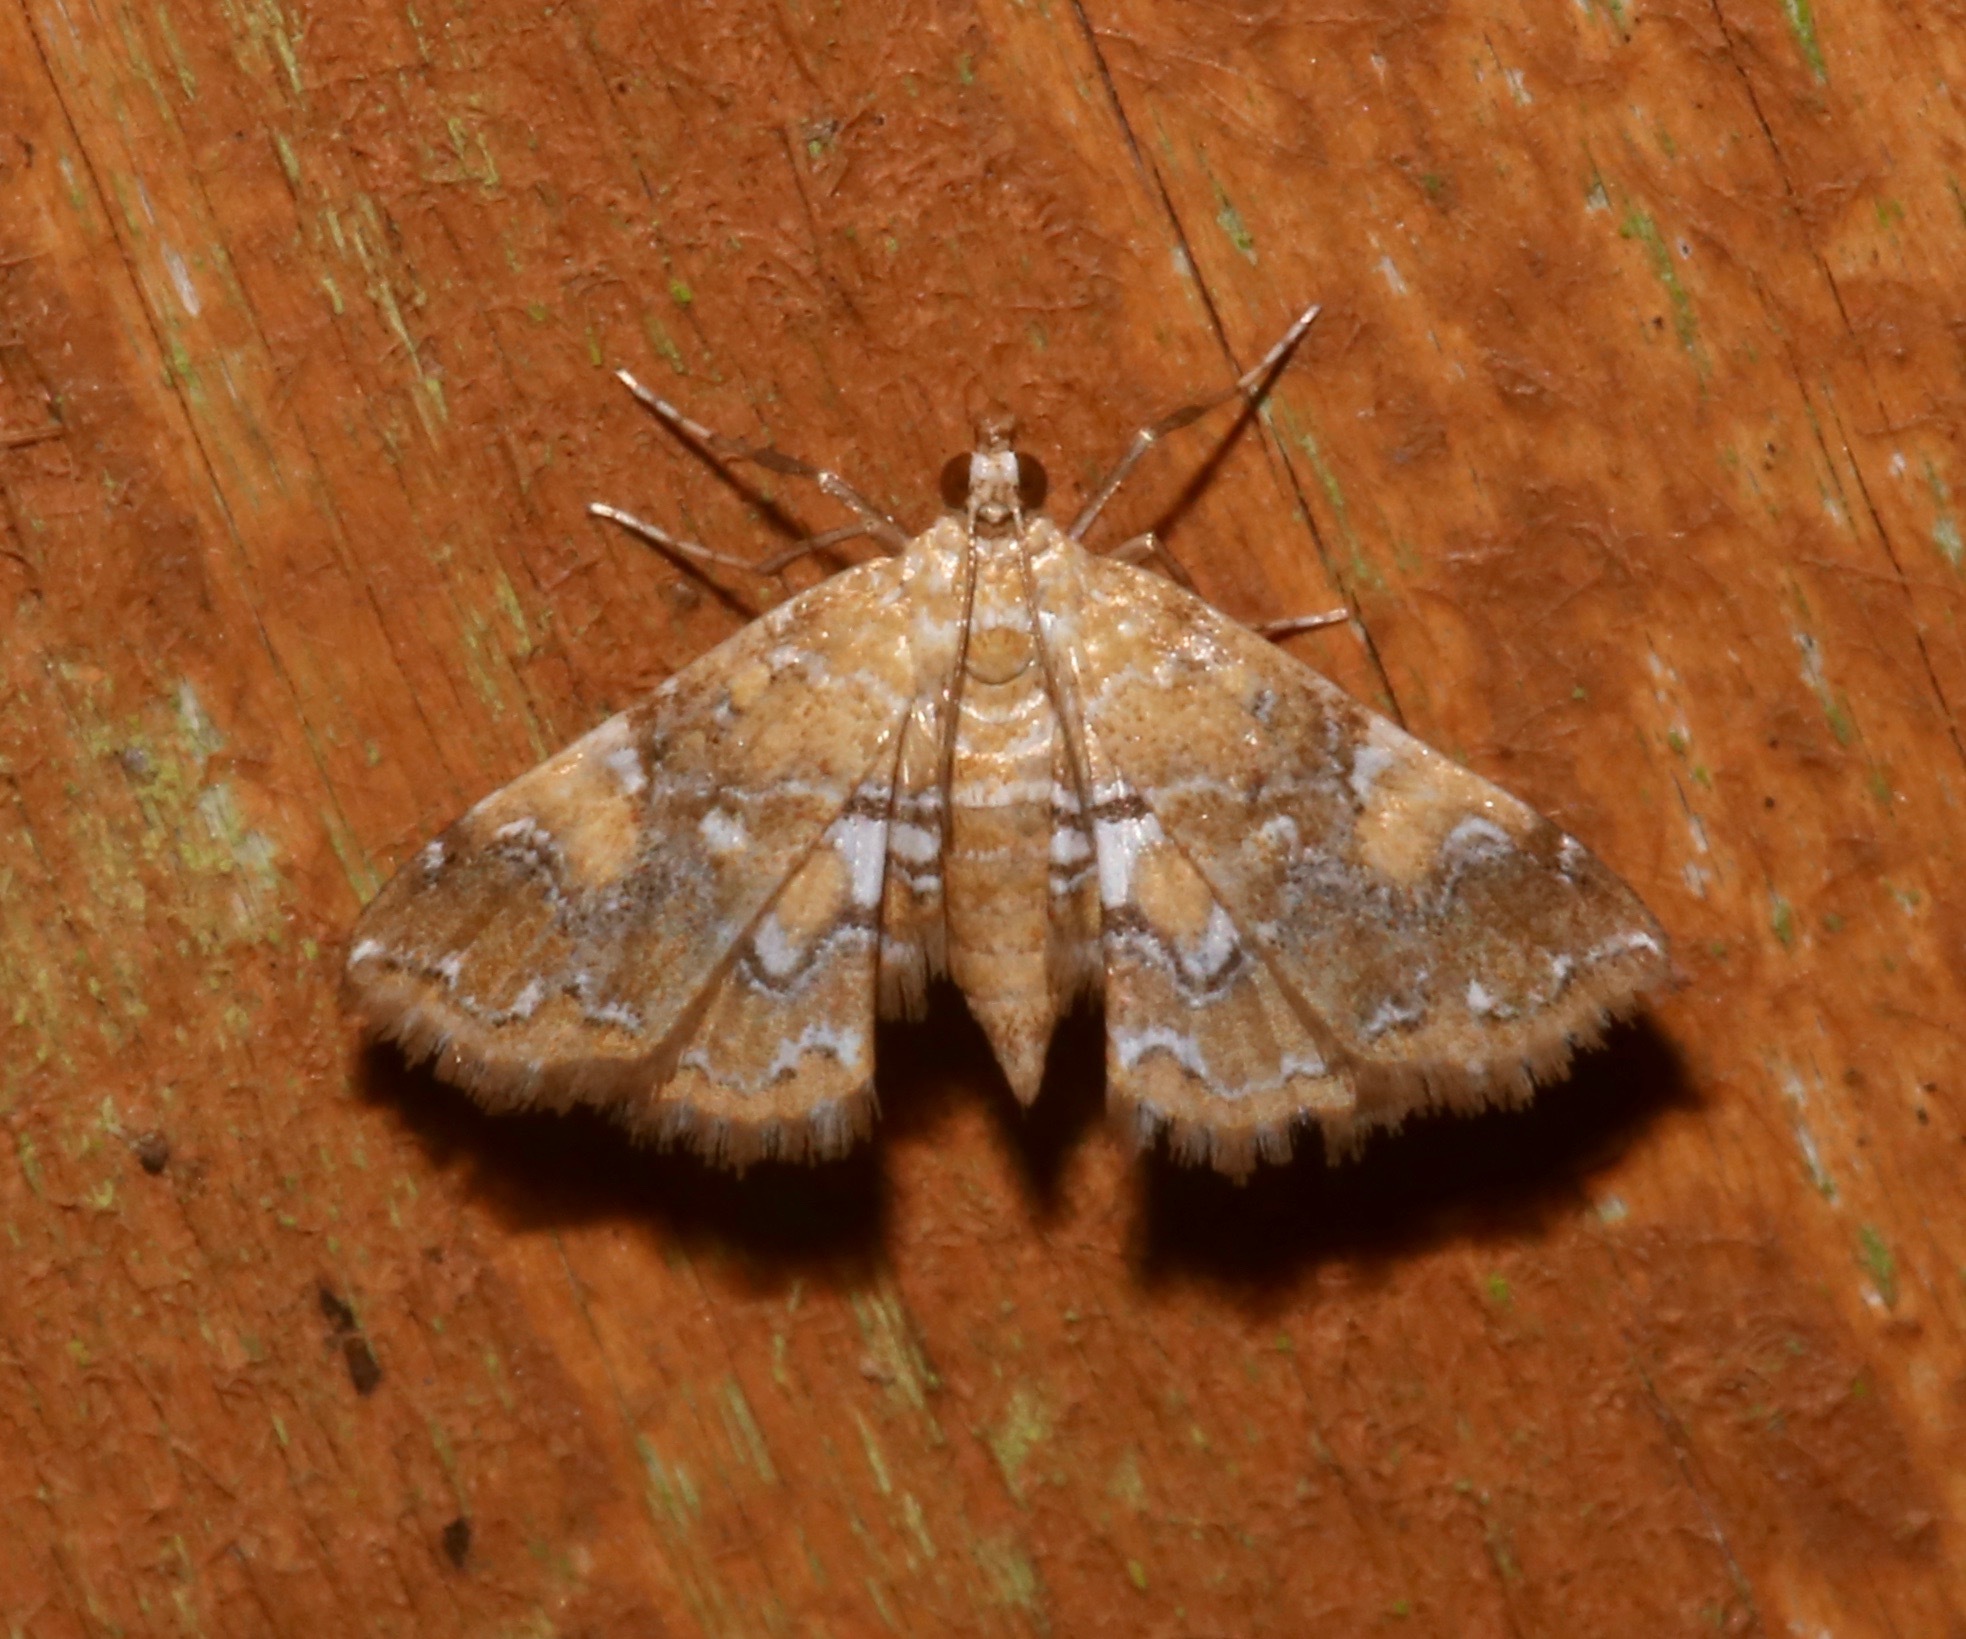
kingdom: Animalia
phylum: Arthropoda
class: Insecta
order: Lepidoptera
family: Crambidae
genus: Elophila
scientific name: Elophila nebulosalis
